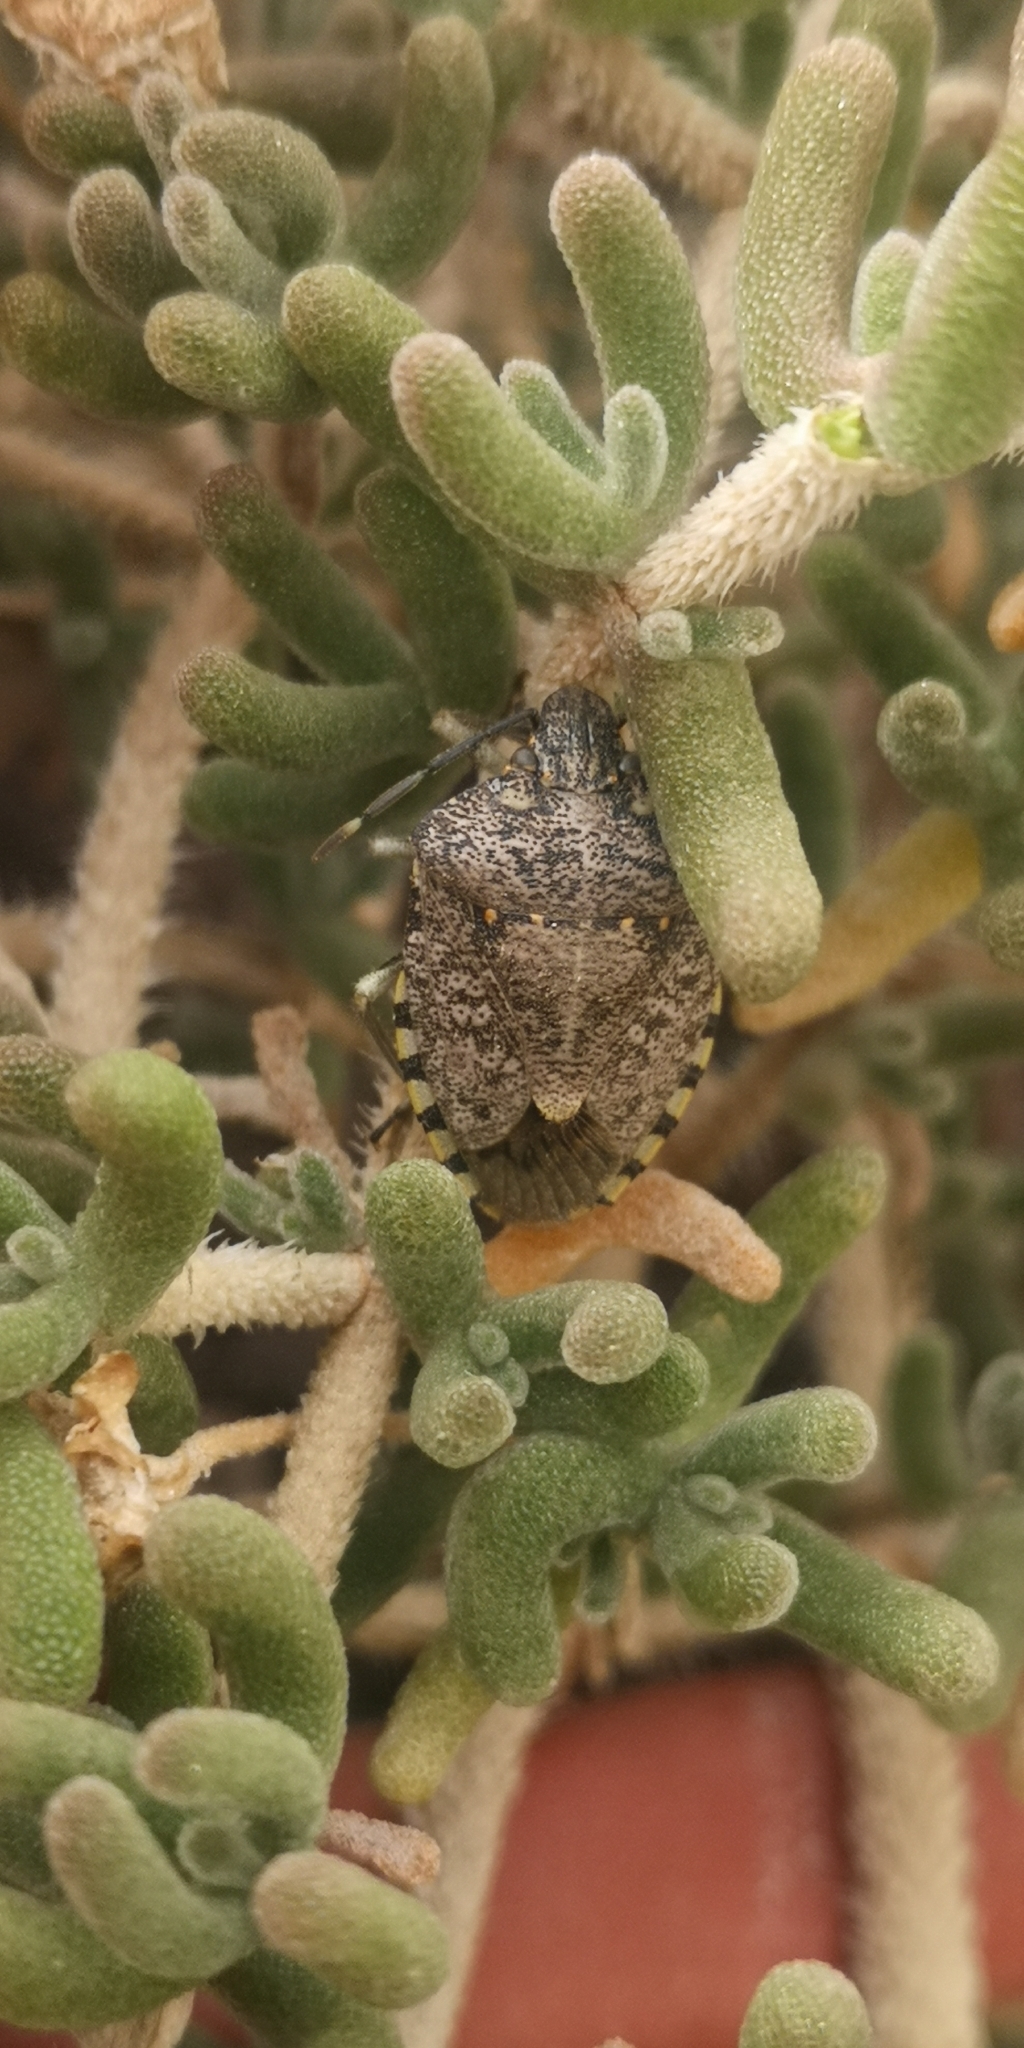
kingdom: Animalia
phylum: Arthropoda
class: Insecta
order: Hemiptera
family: Pentatomidae
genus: Chinavia
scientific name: Chinavia musiva
